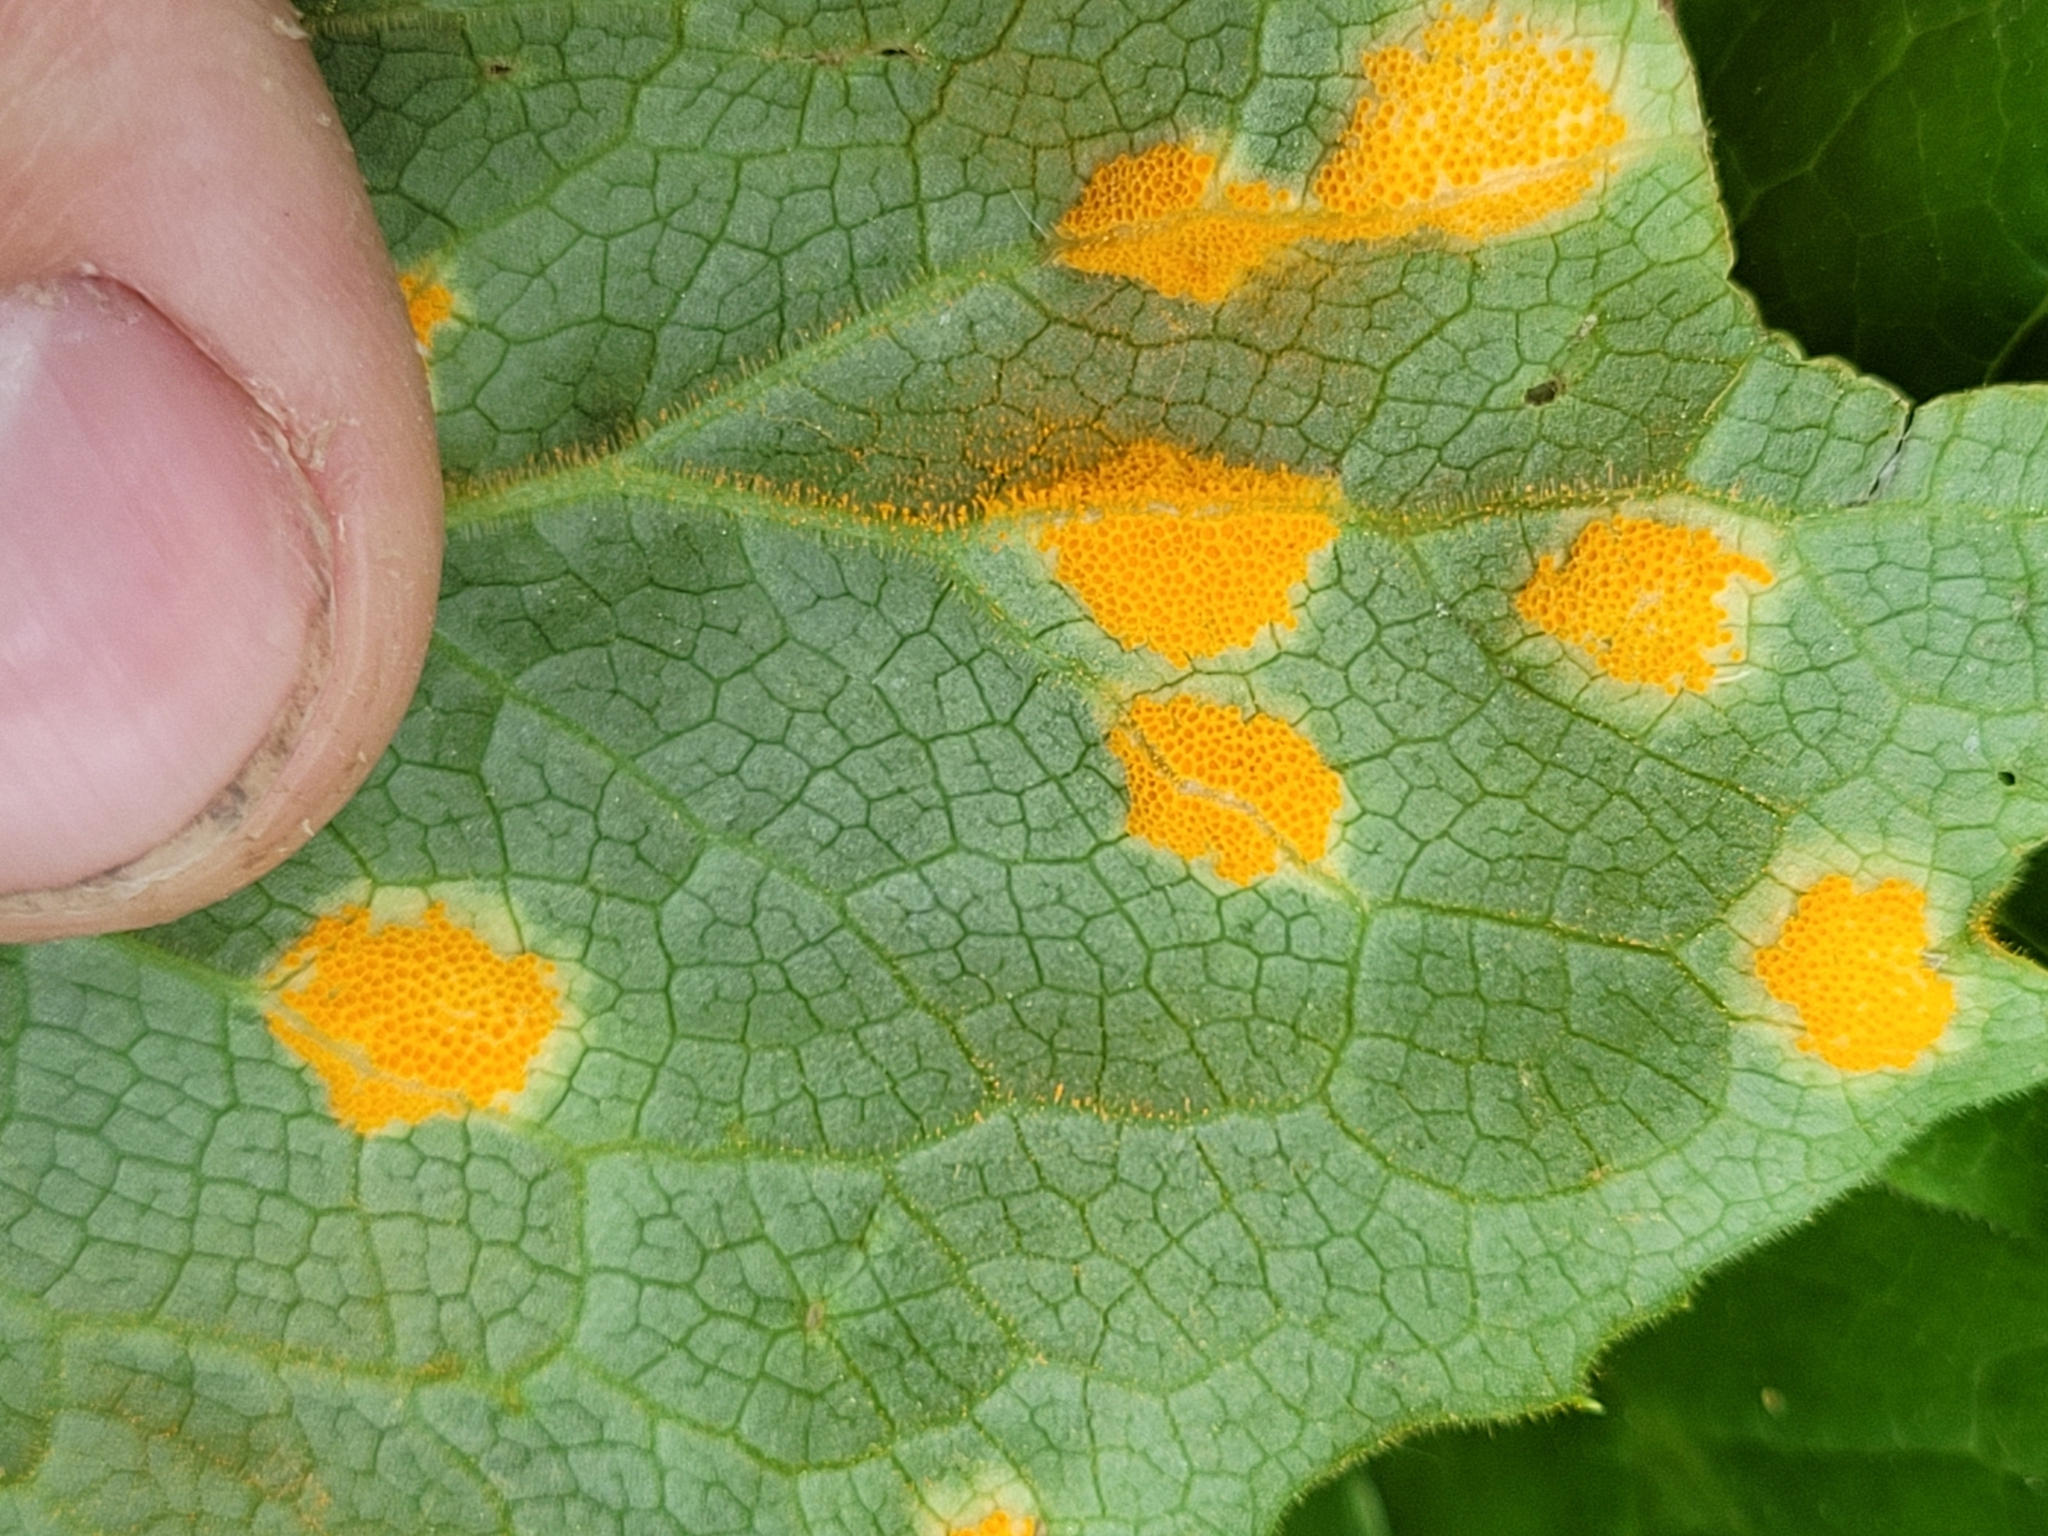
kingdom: Fungi
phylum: Basidiomycota
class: Pucciniomycetes
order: Pucciniales
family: Pucciniaceae
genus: Puccinia
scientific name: Puccinia podophylli
